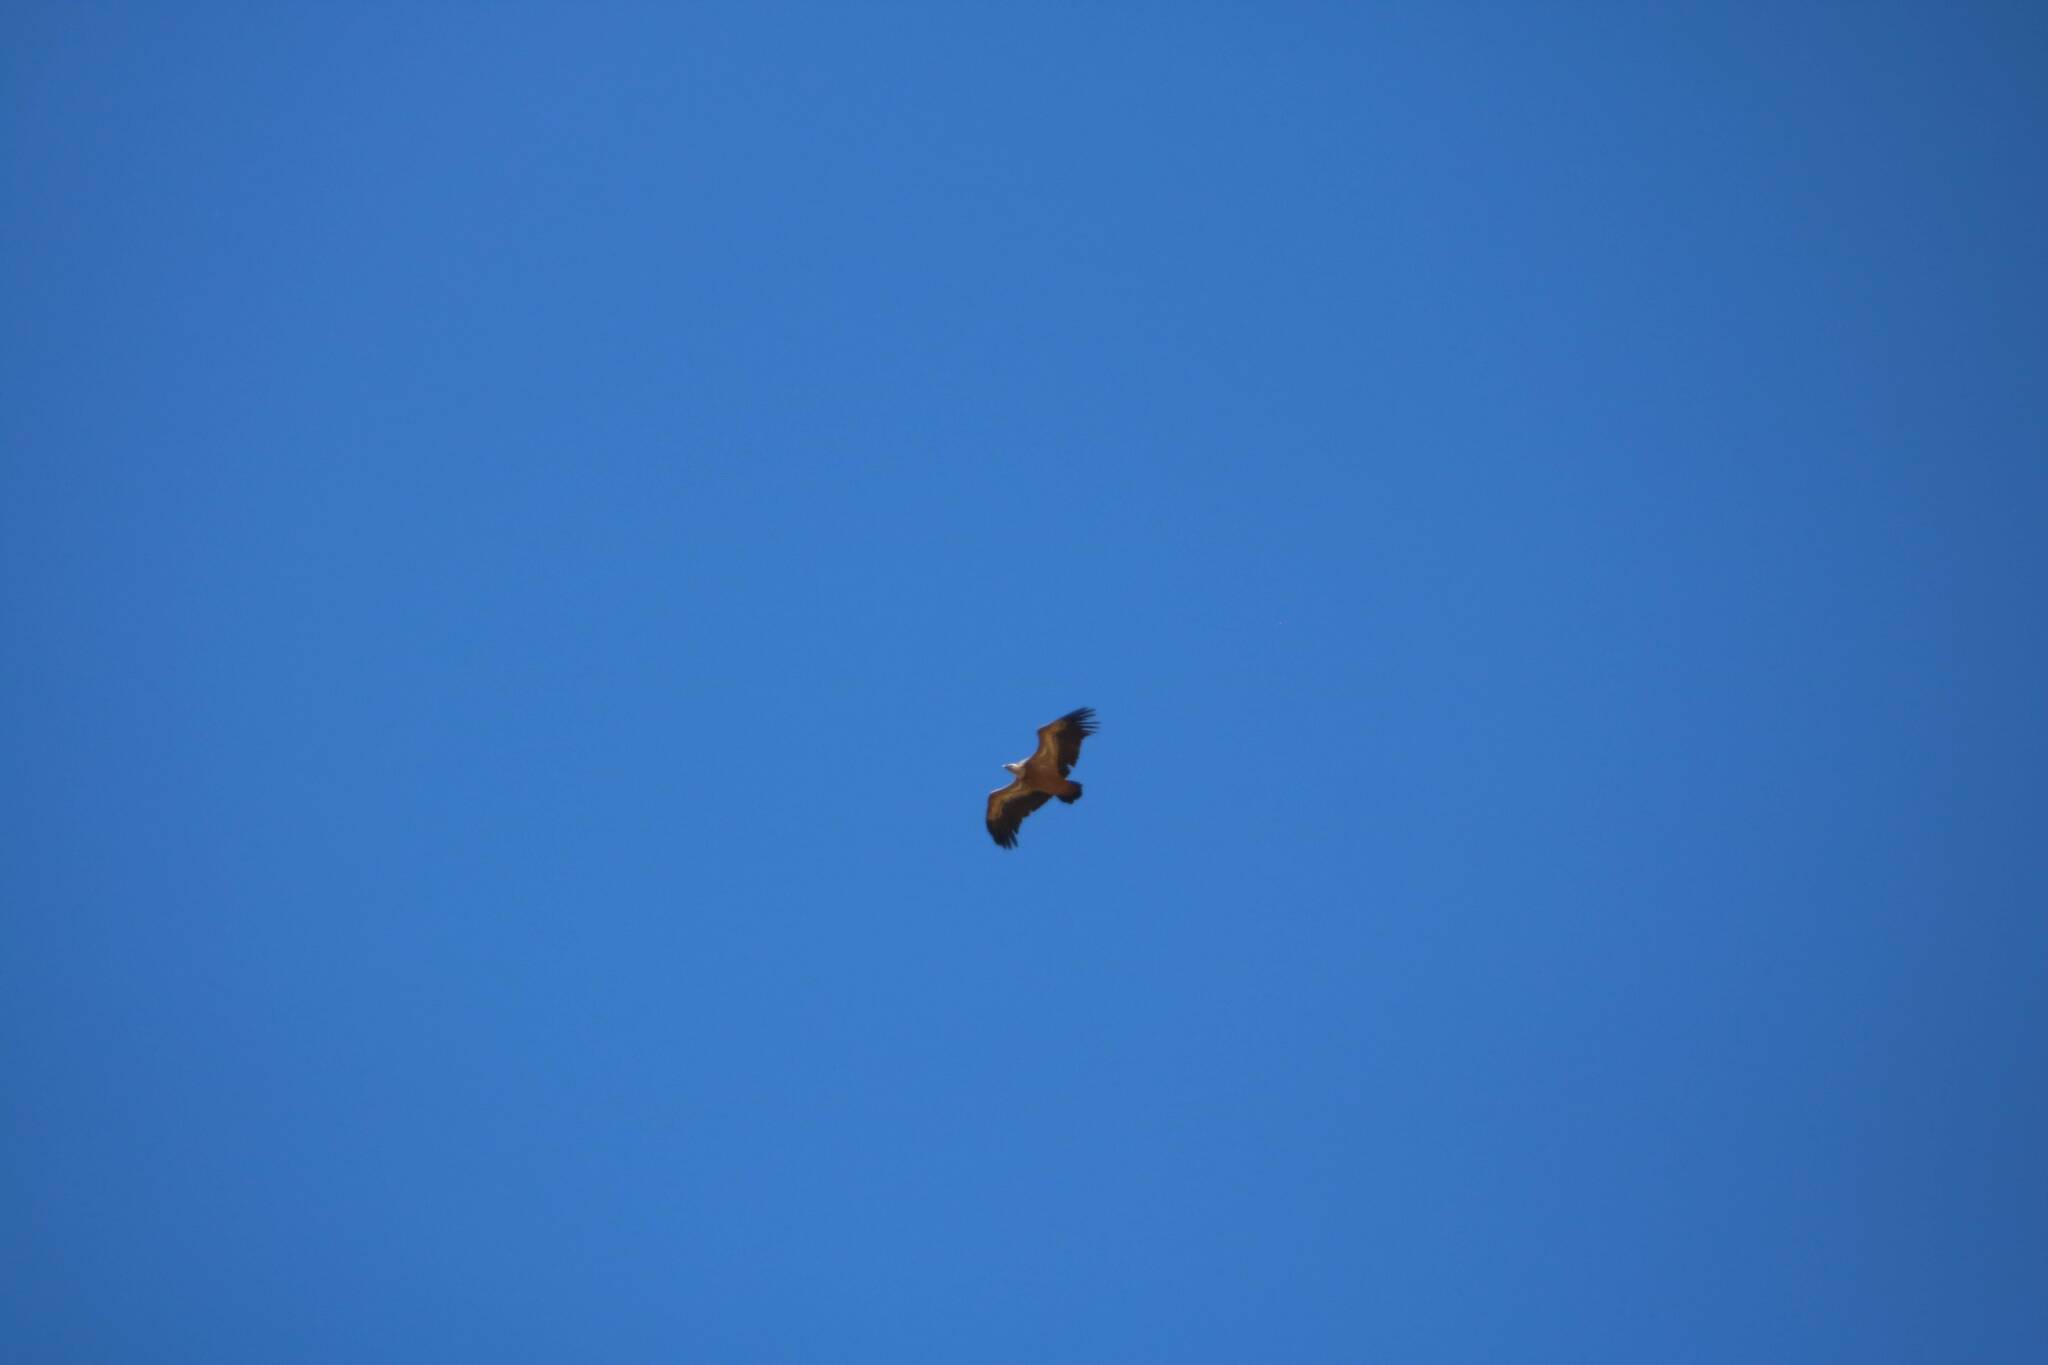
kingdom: Animalia
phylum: Chordata
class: Aves
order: Accipitriformes
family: Accipitridae
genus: Gyps
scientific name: Gyps fulvus
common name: Griffon vulture
